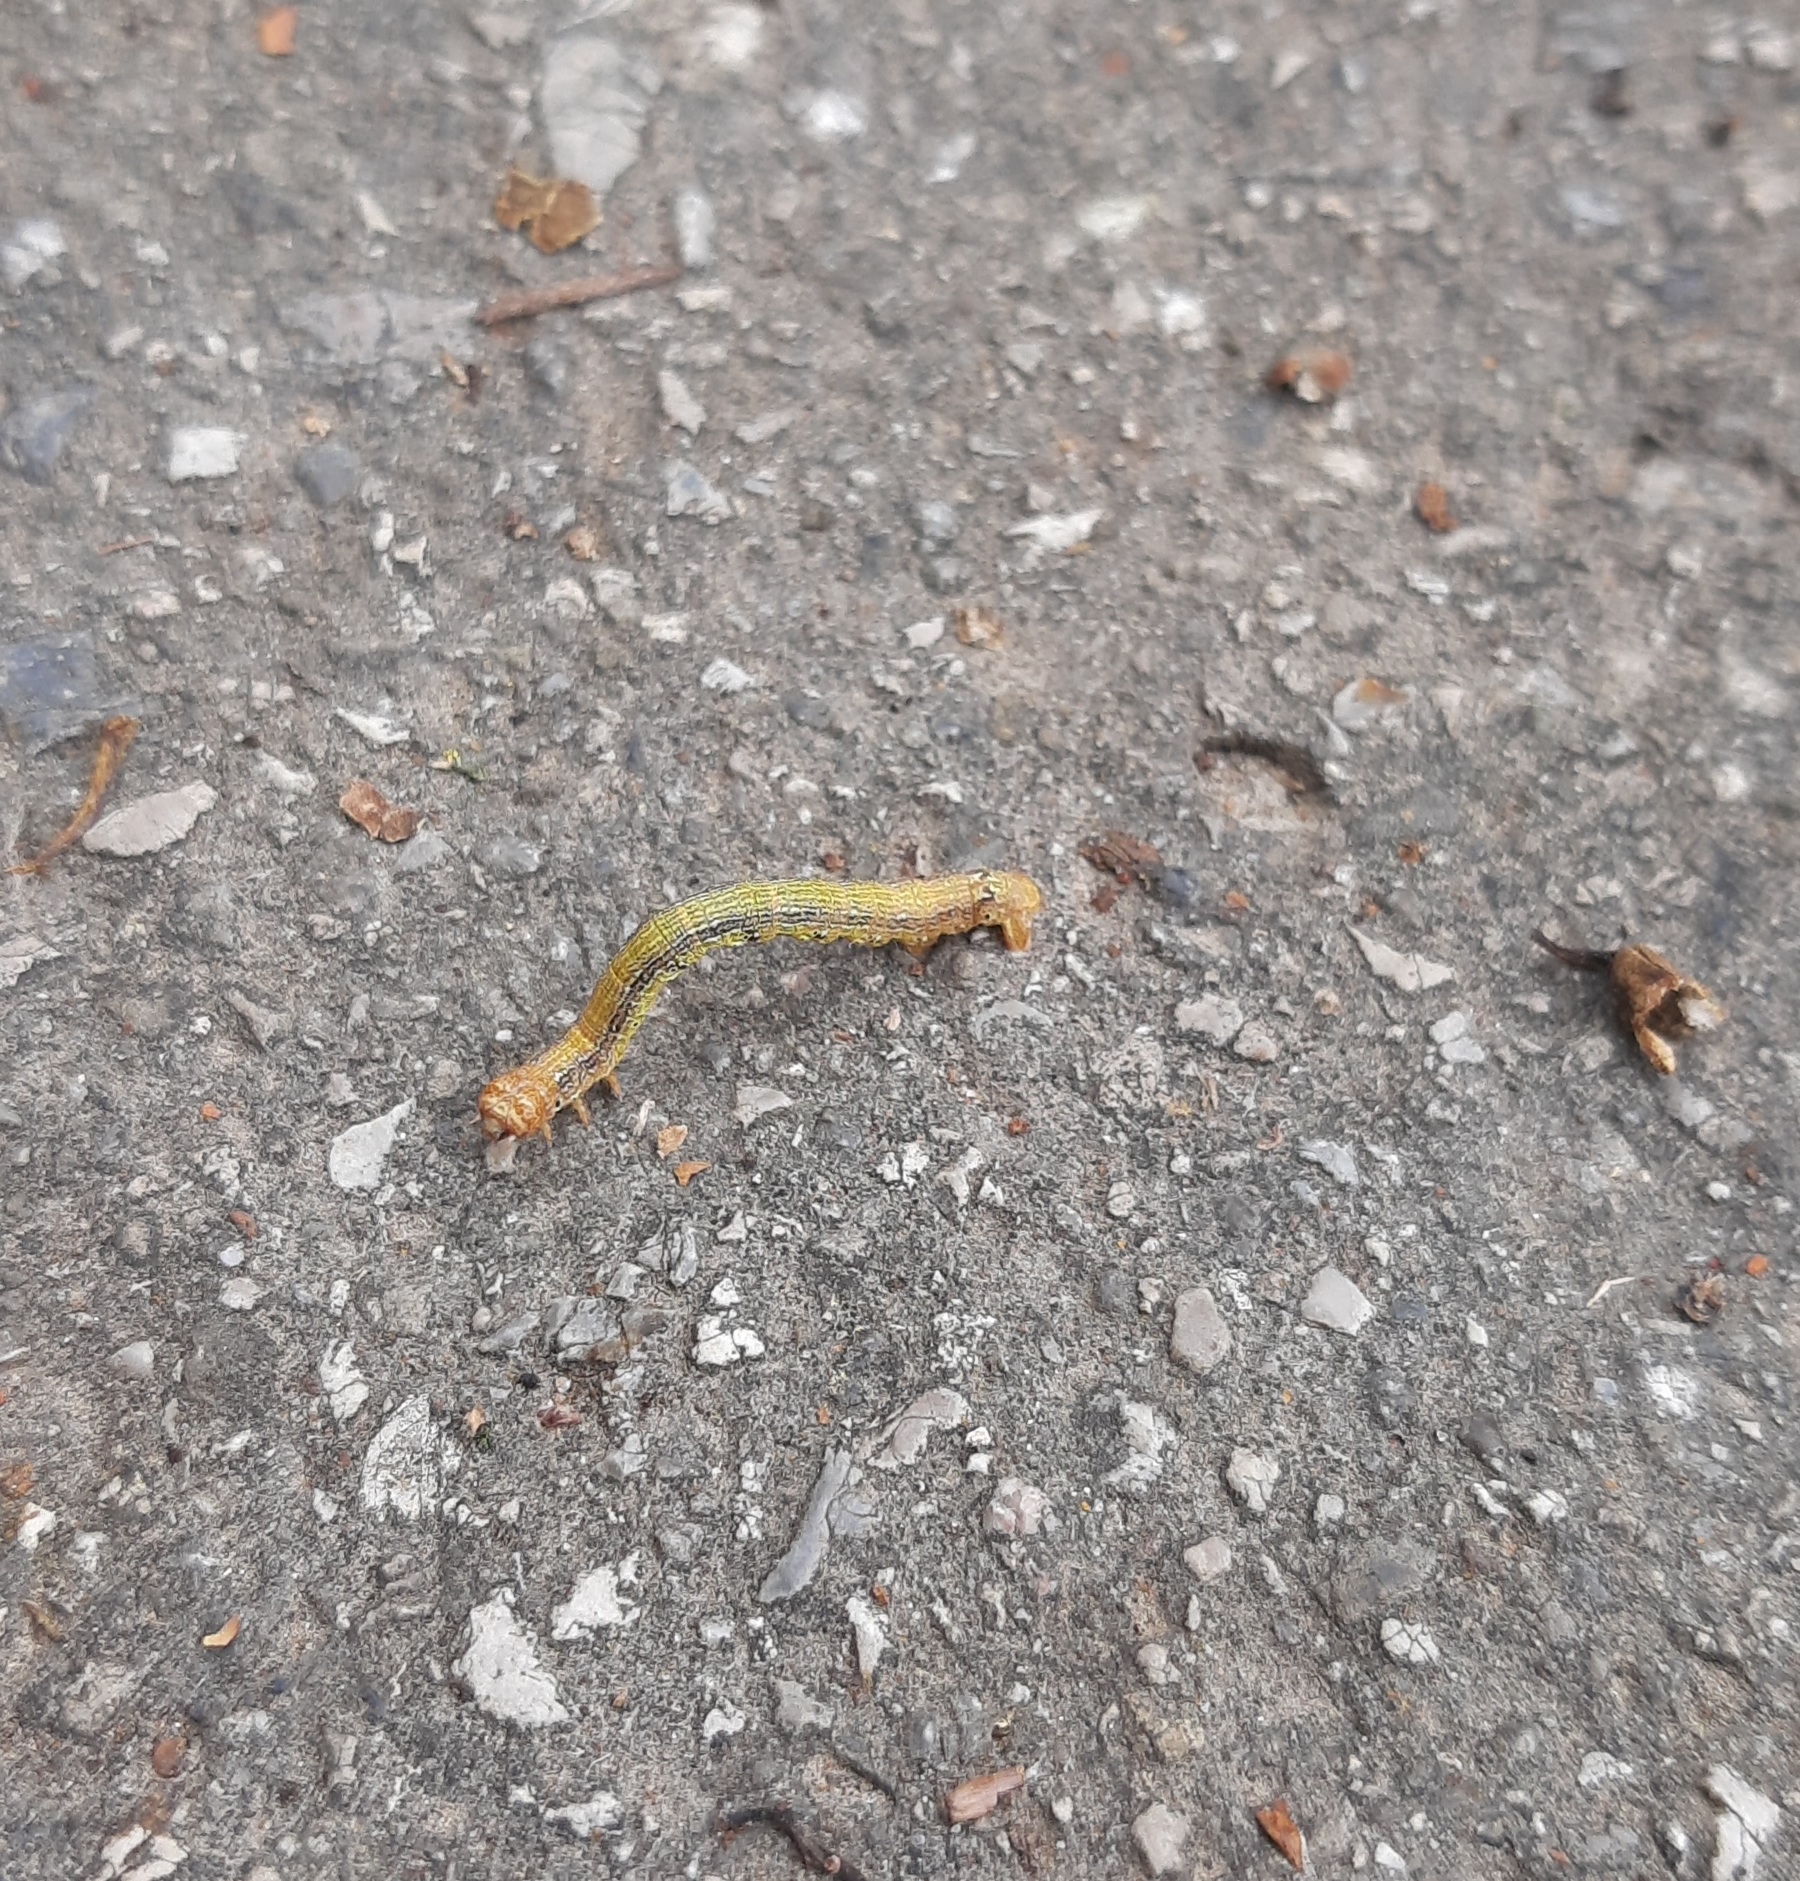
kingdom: Animalia
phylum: Arthropoda
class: Insecta
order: Lepidoptera
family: Geometridae
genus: Agriopis
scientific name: Agriopis
